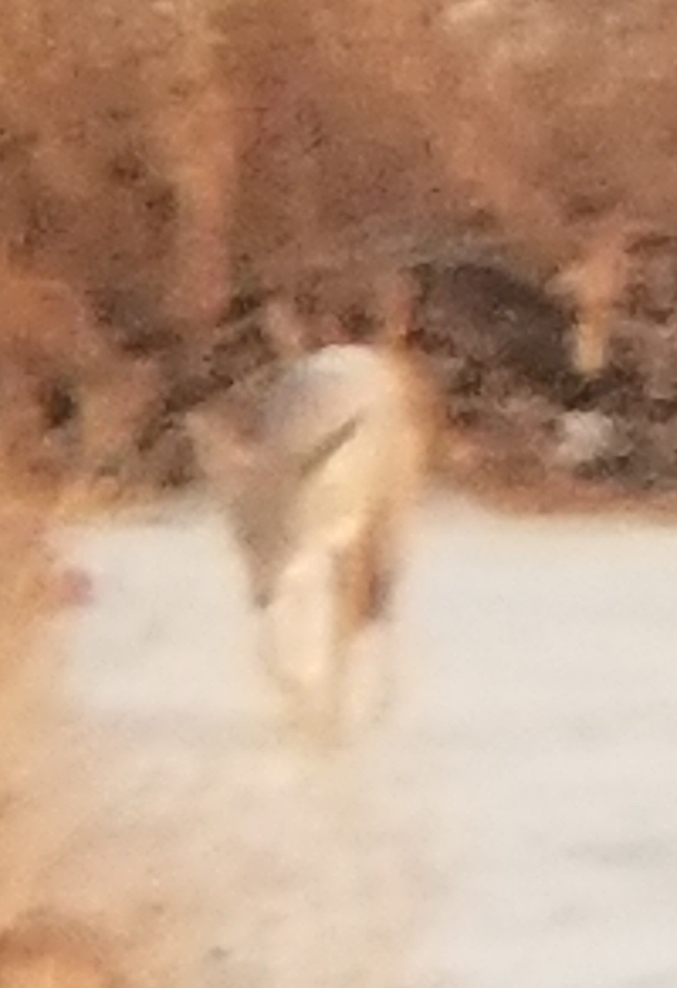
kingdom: Animalia
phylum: Chordata
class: Mammalia
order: Carnivora
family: Canidae
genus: Canis
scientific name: Canis latrans
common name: Coyote
